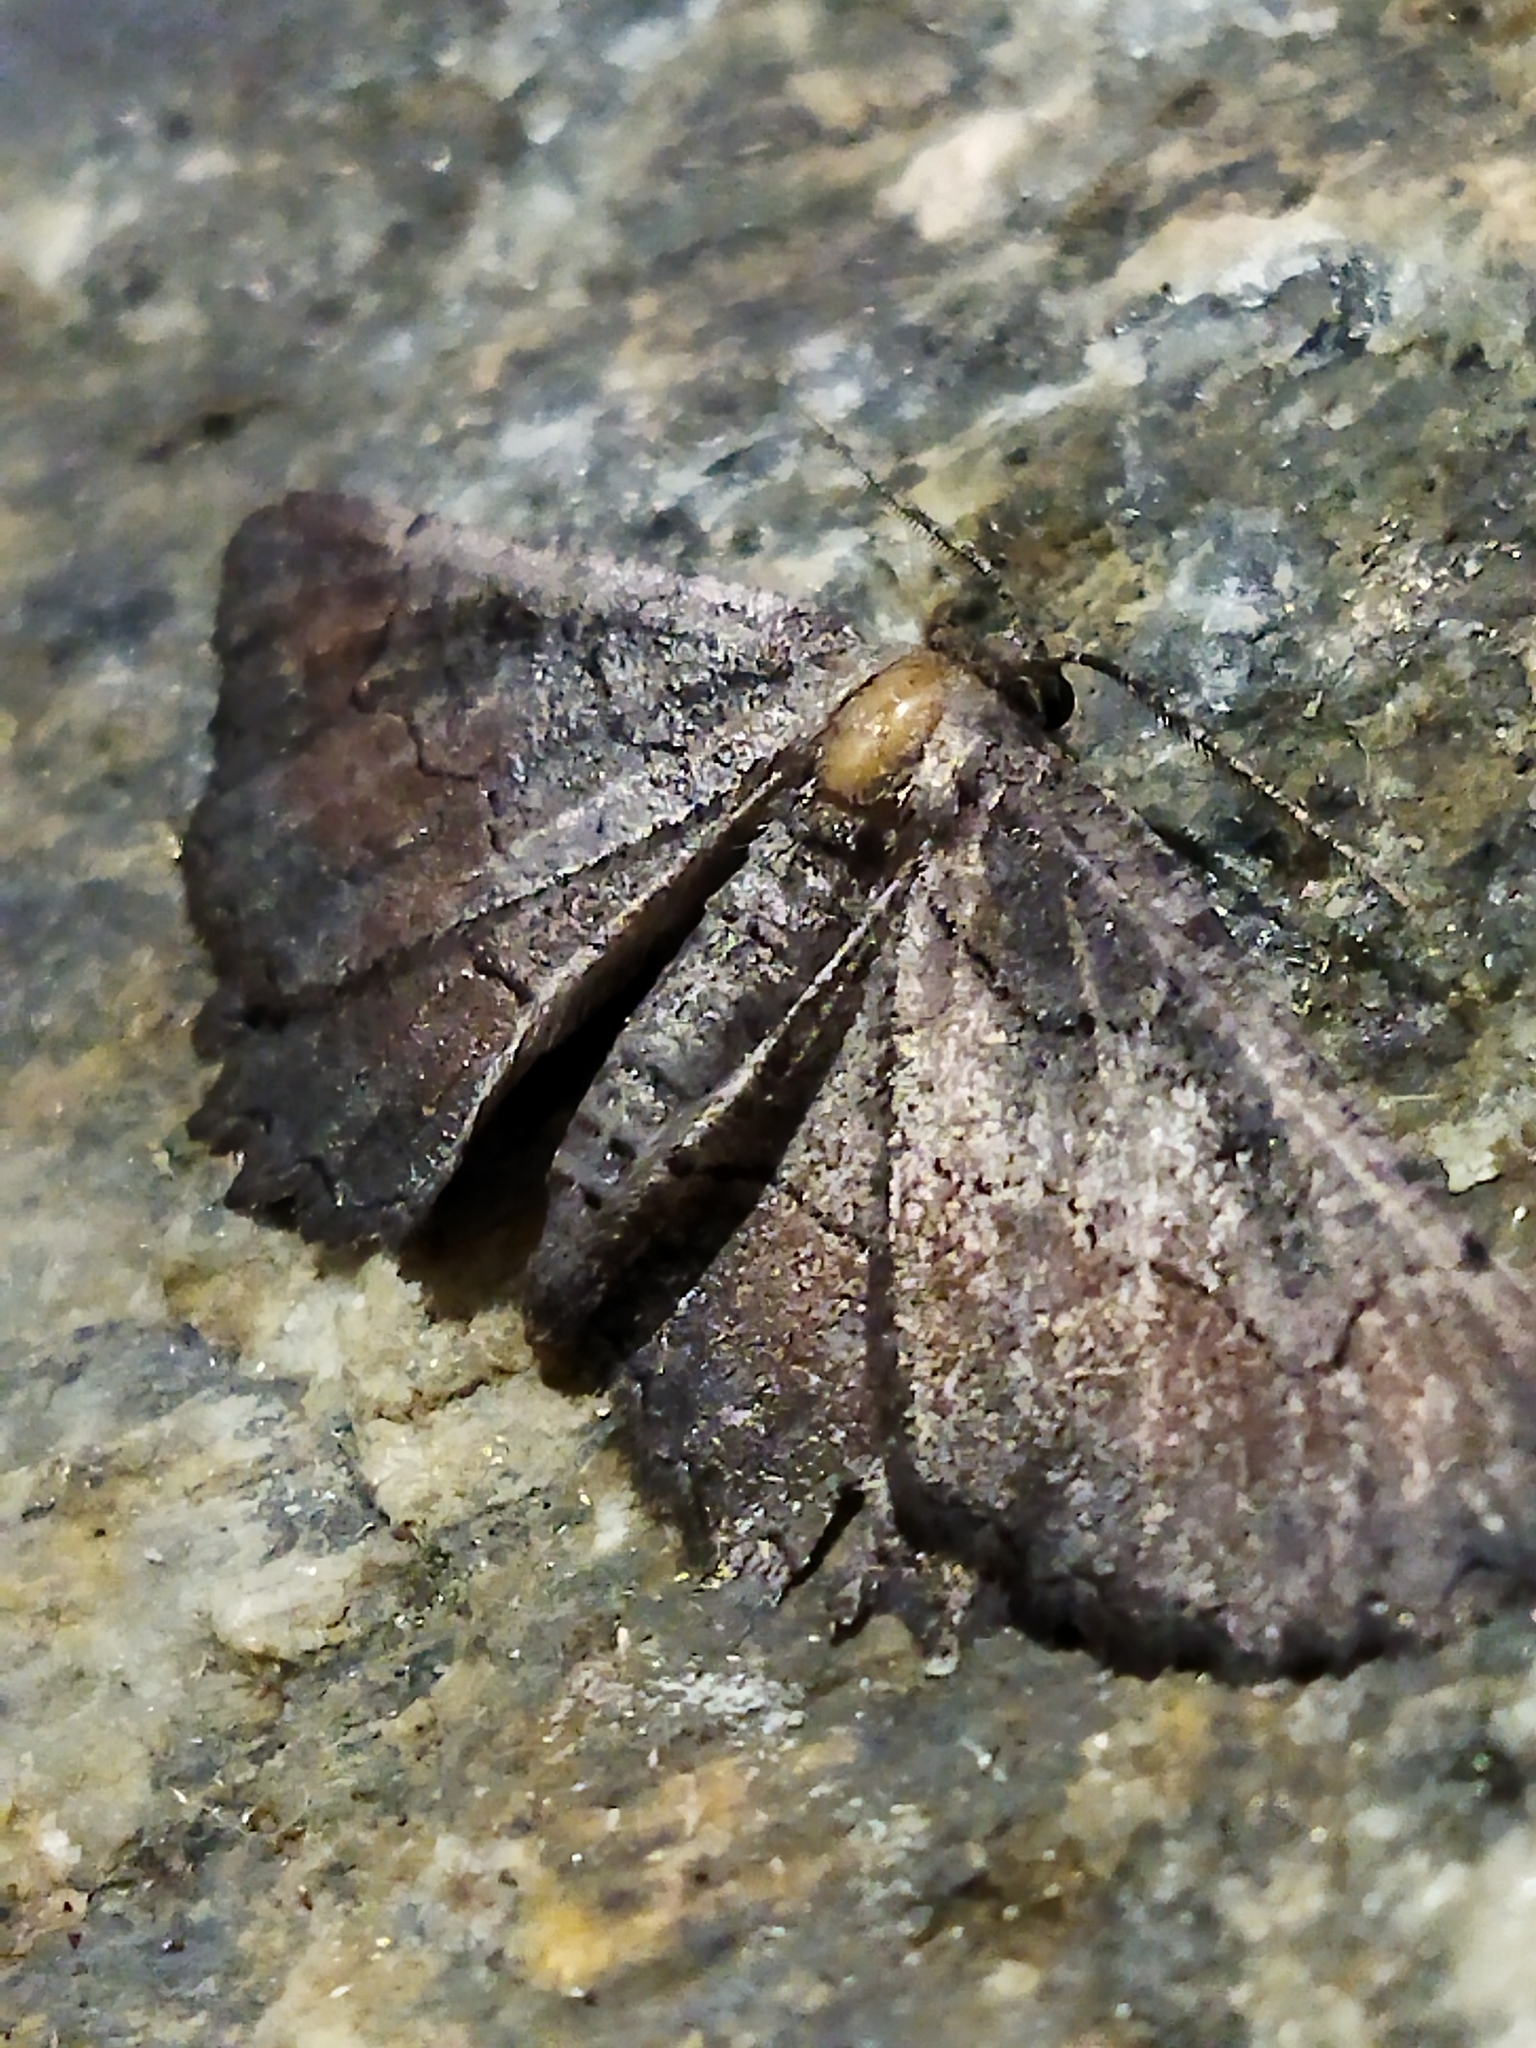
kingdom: Animalia
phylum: Arthropoda
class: Insecta
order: Lepidoptera
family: Geometridae
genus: Nychiodes
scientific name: Nychiodes waltheri
